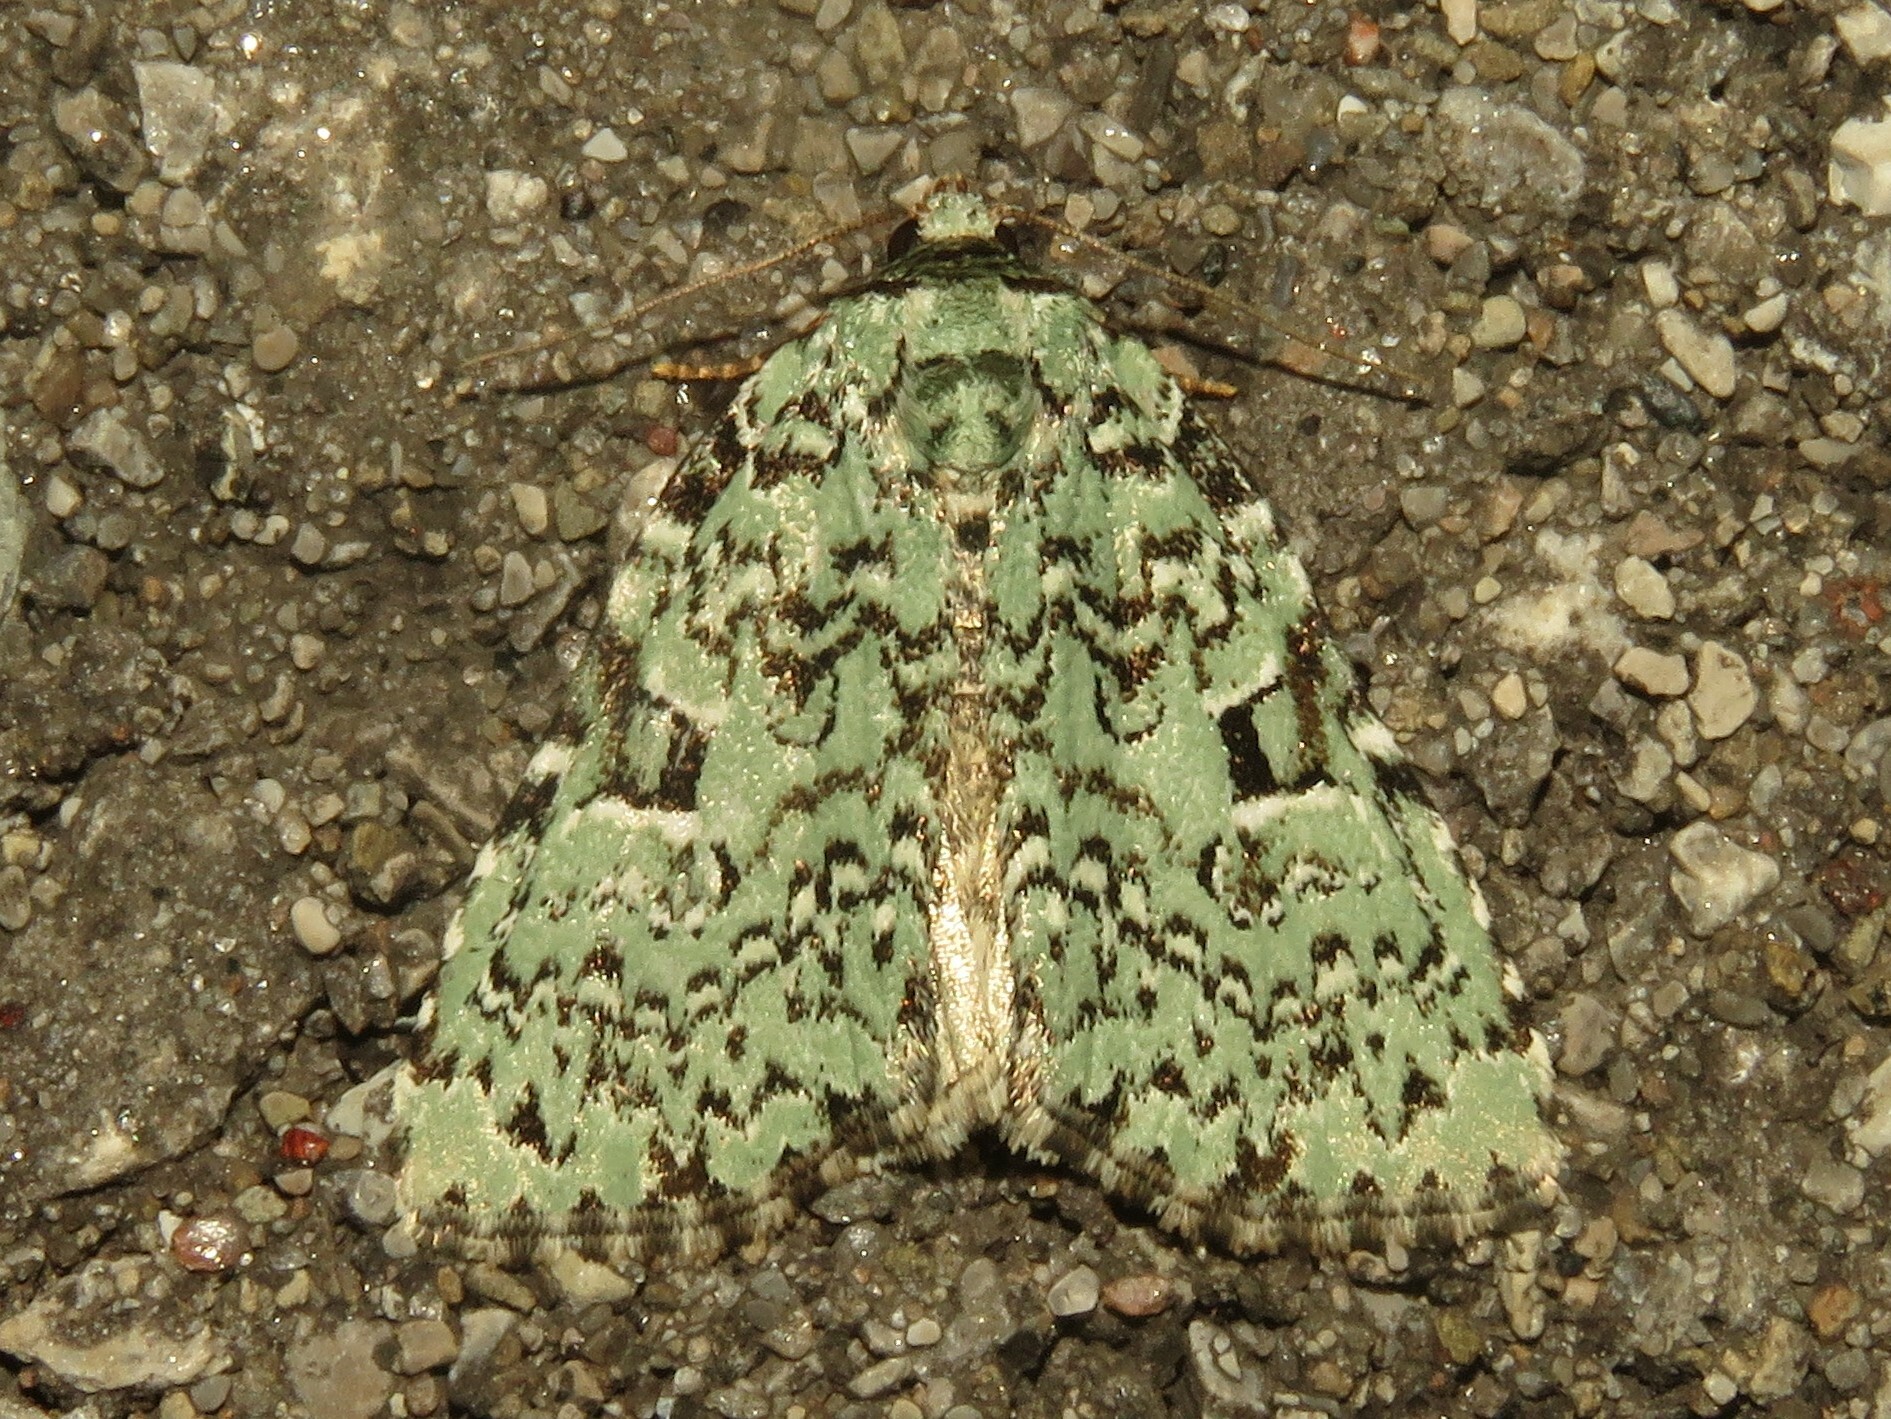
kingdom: Animalia
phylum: Arthropoda
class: Insecta
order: Lepidoptera
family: Noctuidae
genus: Leuconycta
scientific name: Leuconycta diphteroides
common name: Green leuconycta moth
